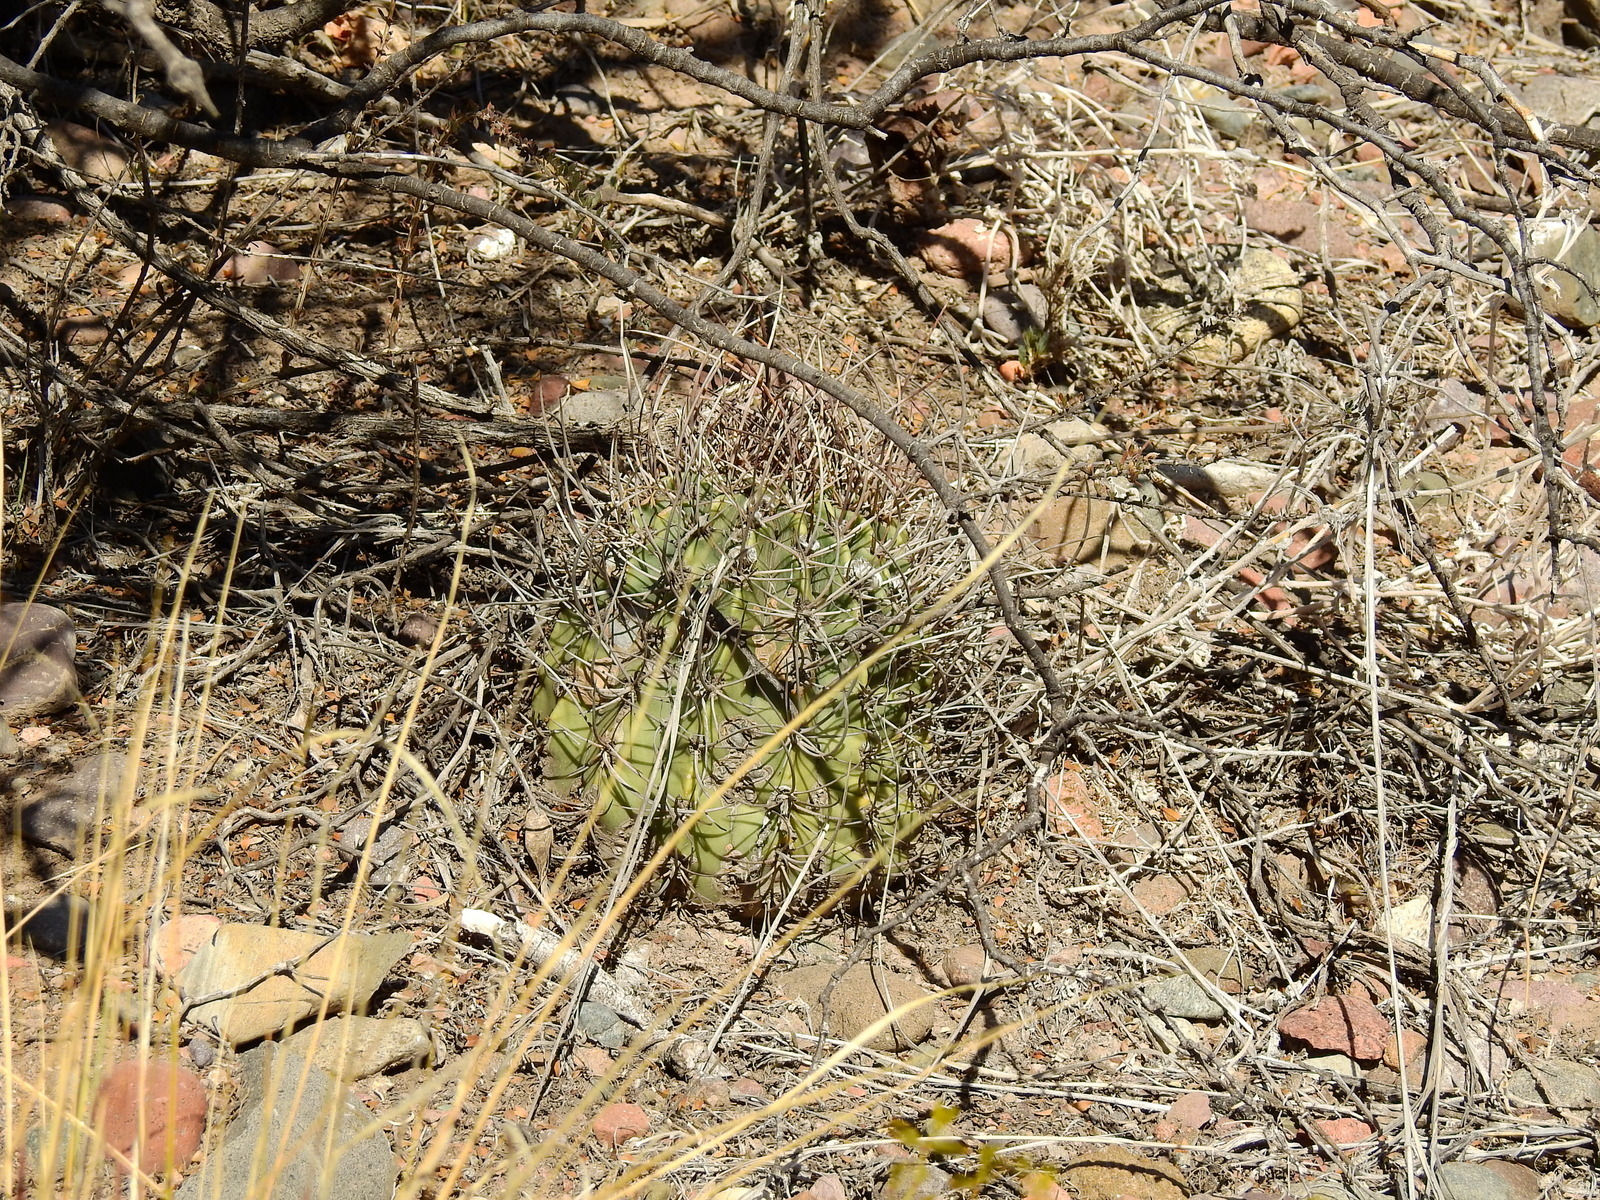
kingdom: Plantae
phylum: Tracheophyta
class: Magnoliopsida
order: Caryophyllales
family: Cactaceae
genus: Acanthocalycium
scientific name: Acanthocalycium leucanthum
